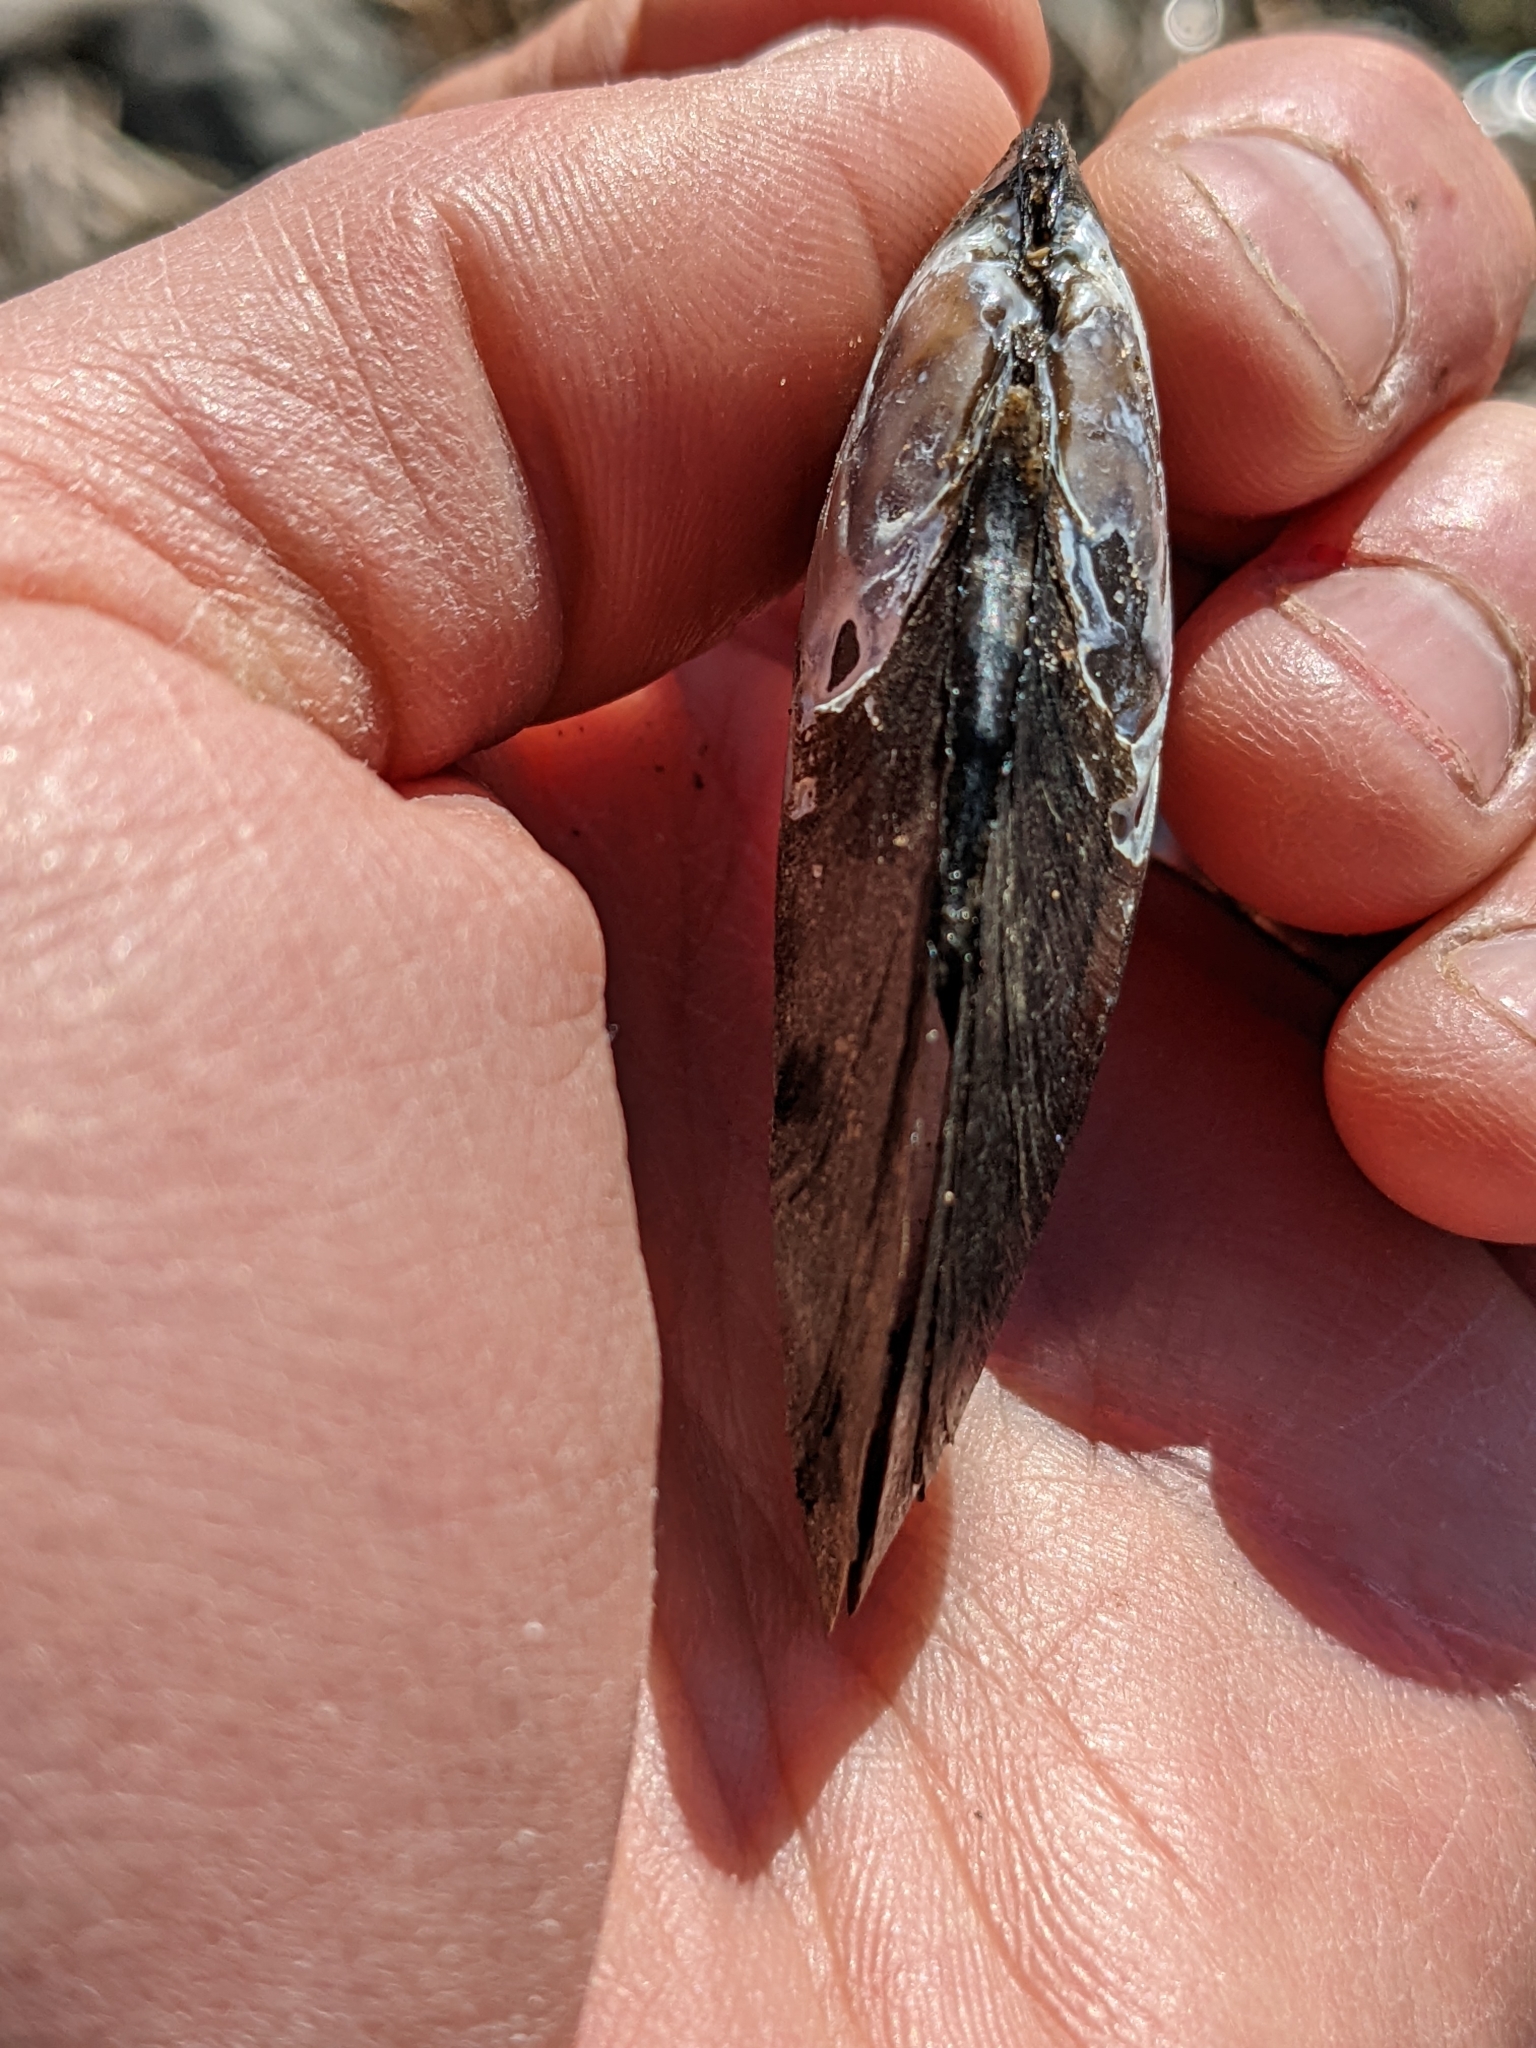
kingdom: Animalia
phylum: Mollusca
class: Bivalvia
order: Unionida
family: Unionidae
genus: Elliptio
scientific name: Elliptio complanata
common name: Eastern elliptio
